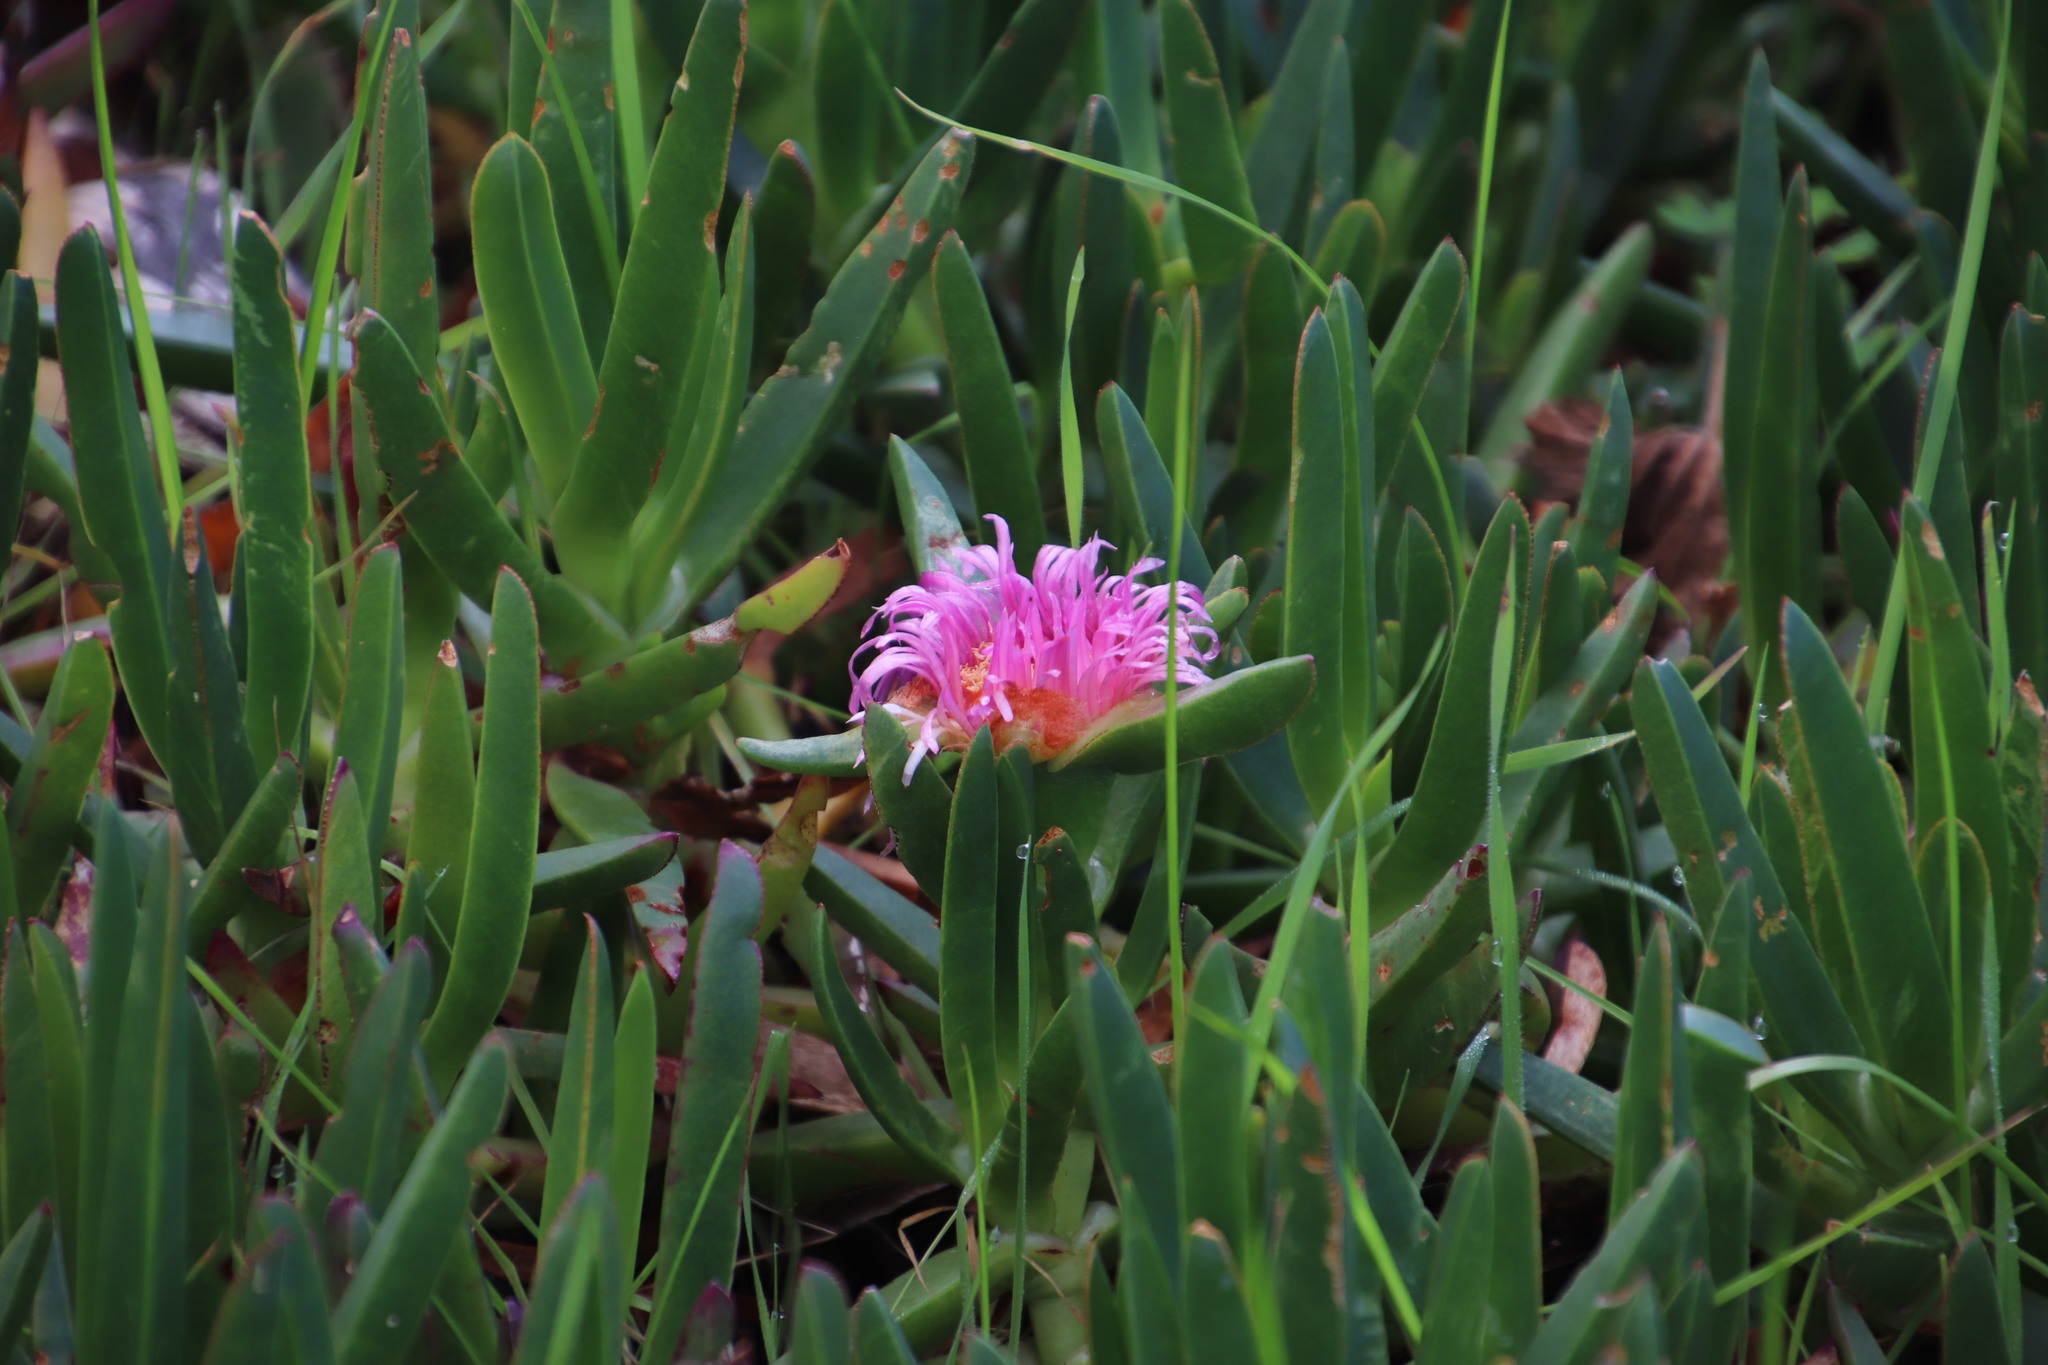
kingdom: Plantae
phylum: Tracheophyta
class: Magnoliopsida
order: Caryophyllales
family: Aizoaceae
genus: Carpobrotus
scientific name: Carpobrotus edulis
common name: Hottentot-fig
